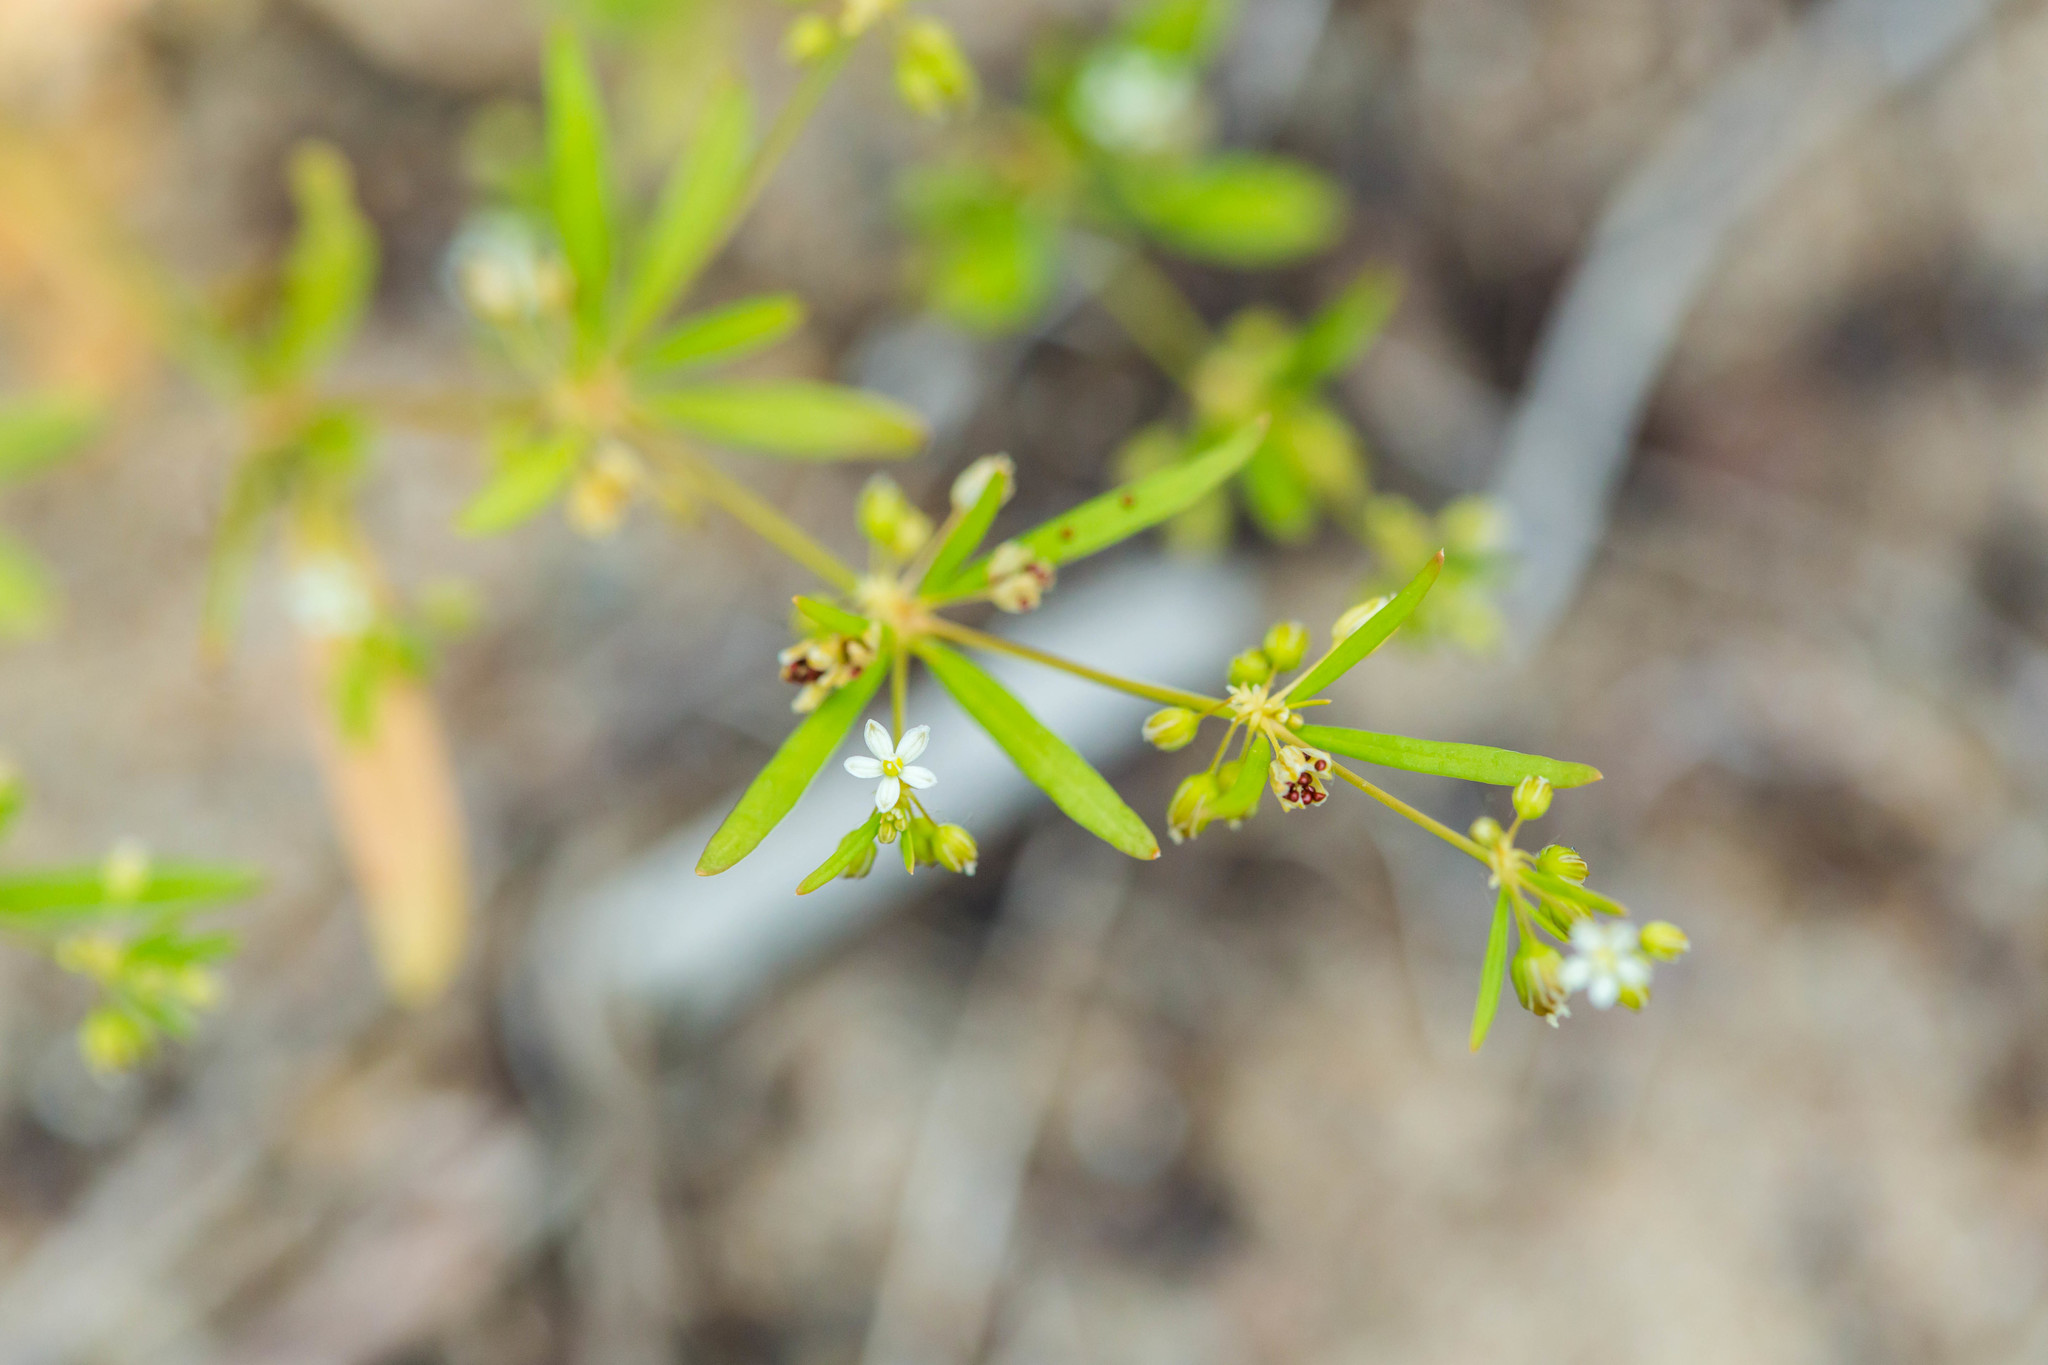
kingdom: Plantae
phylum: Tracheophyta
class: Magnoliopsida
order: Caryophyllales
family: Molluginaceae
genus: Mollugo
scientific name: Mollugo verticillata
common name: Green carpetweed
